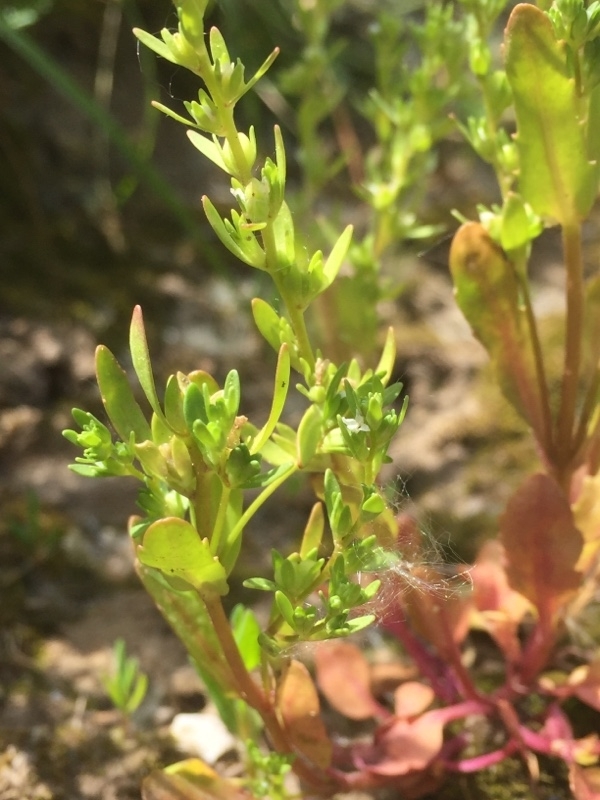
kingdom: Plantae
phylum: Tracheophyta
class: Magnoliopsida
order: Lamiales
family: Plantaginaceae
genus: Veronica
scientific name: Veronica peregrina
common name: Neckweed
